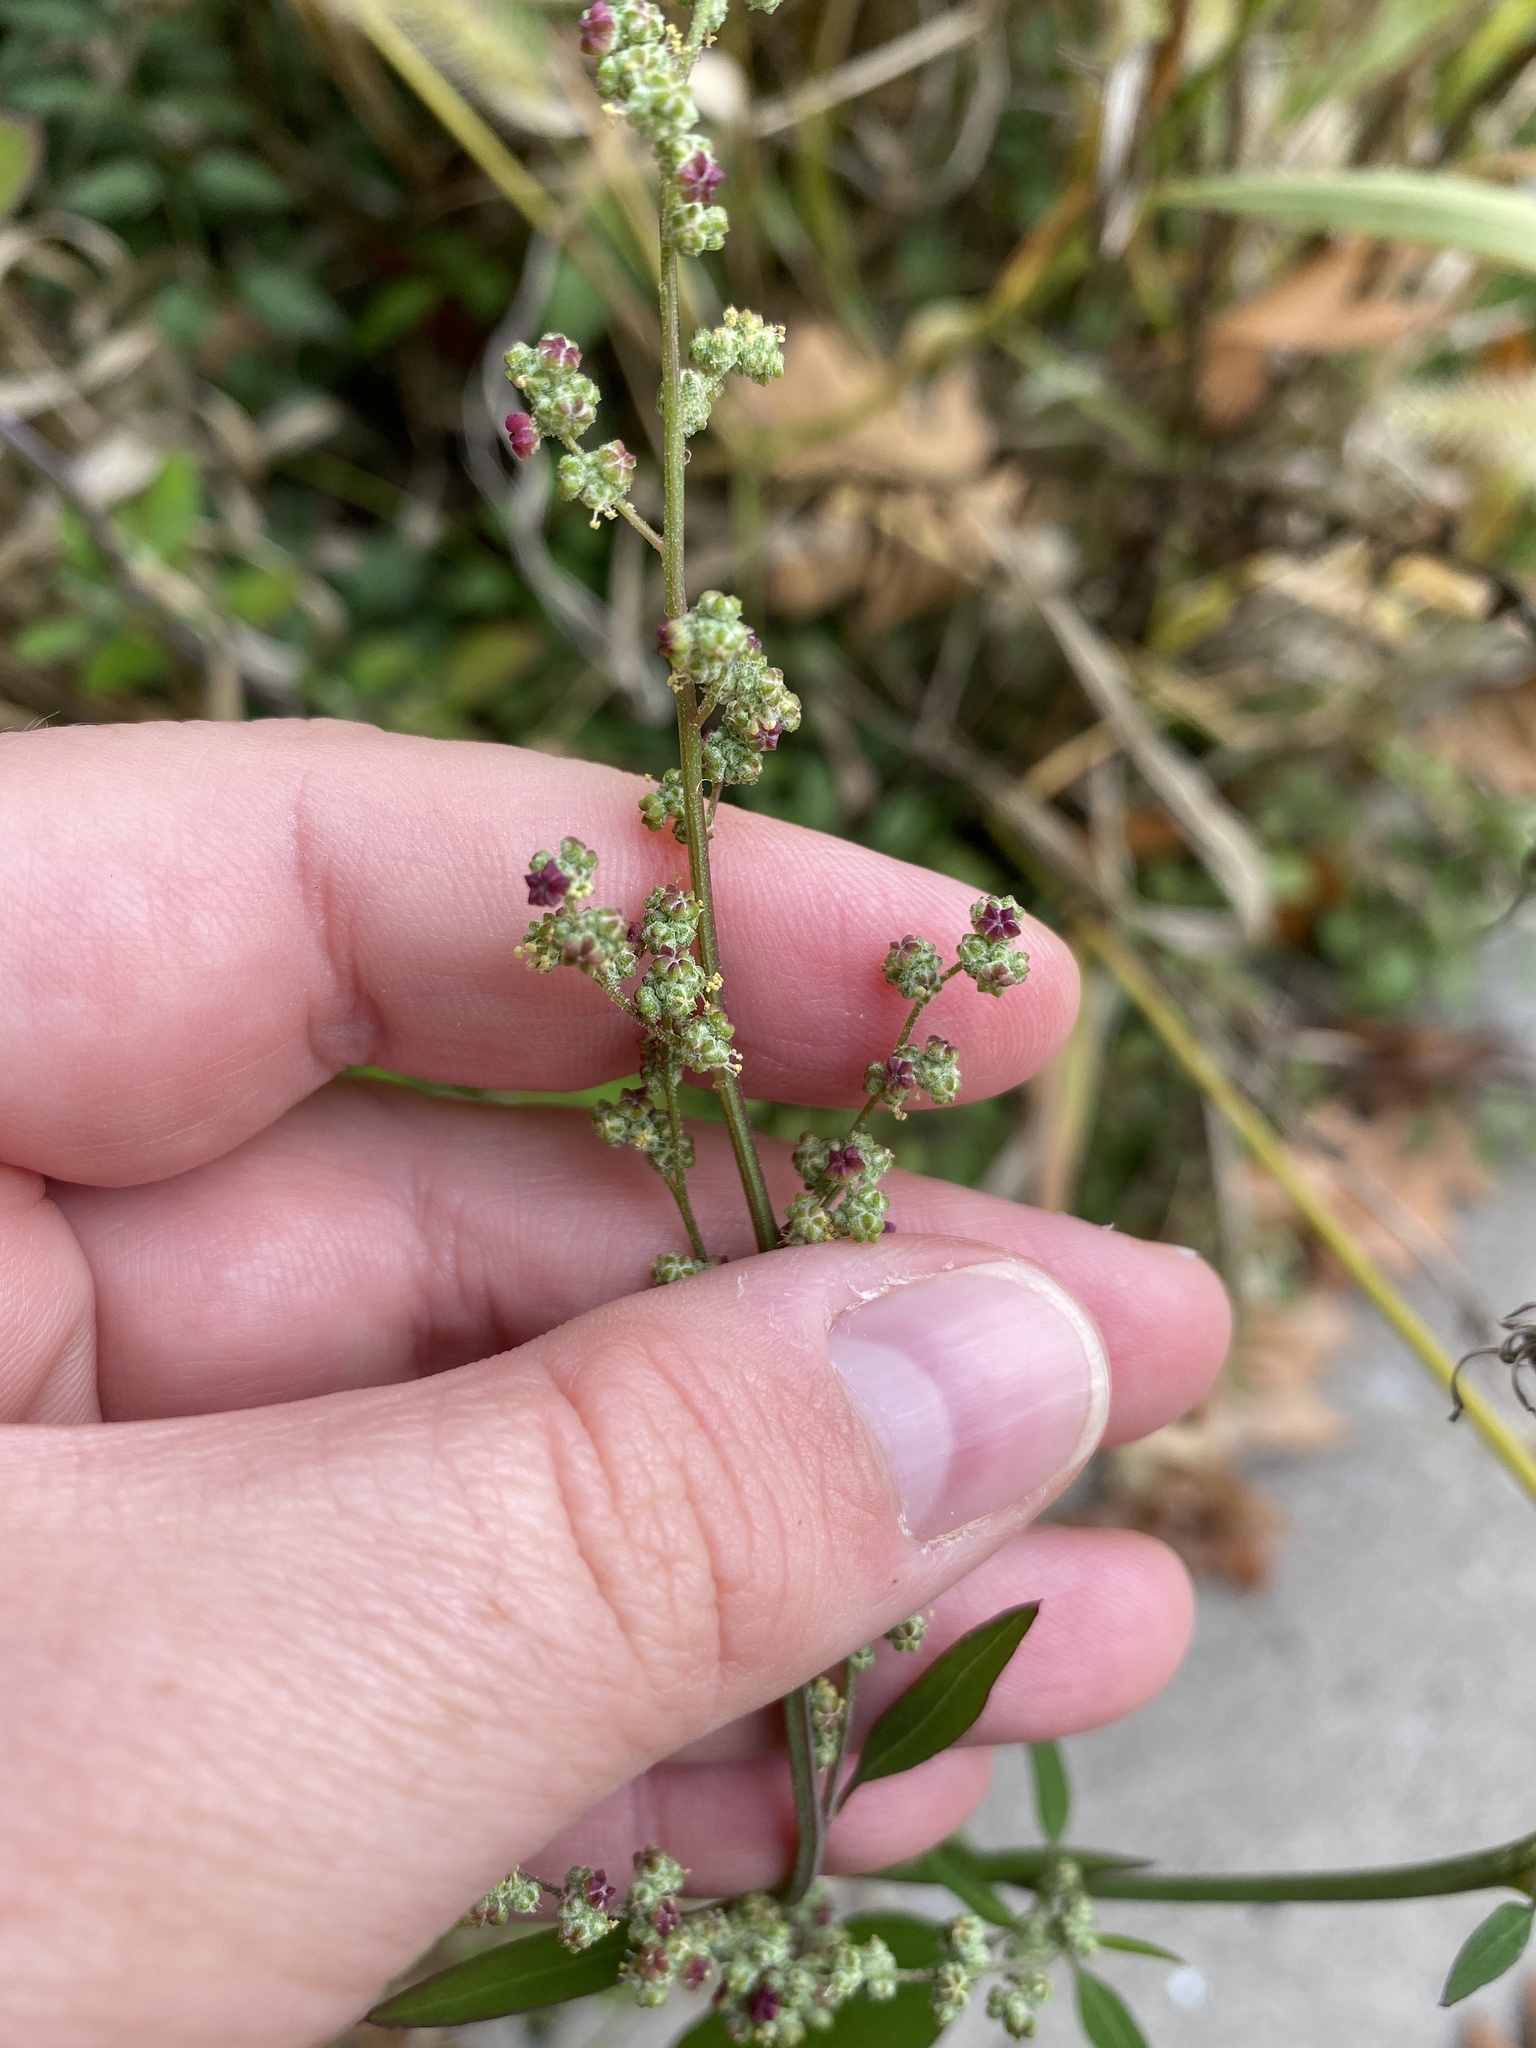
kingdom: Plantae
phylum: Tracheophyta
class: Magnoliopsida
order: Caryophyllales
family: Amaranthaceae
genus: Chenopodium
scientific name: Chenopodium album
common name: Fat-hen
